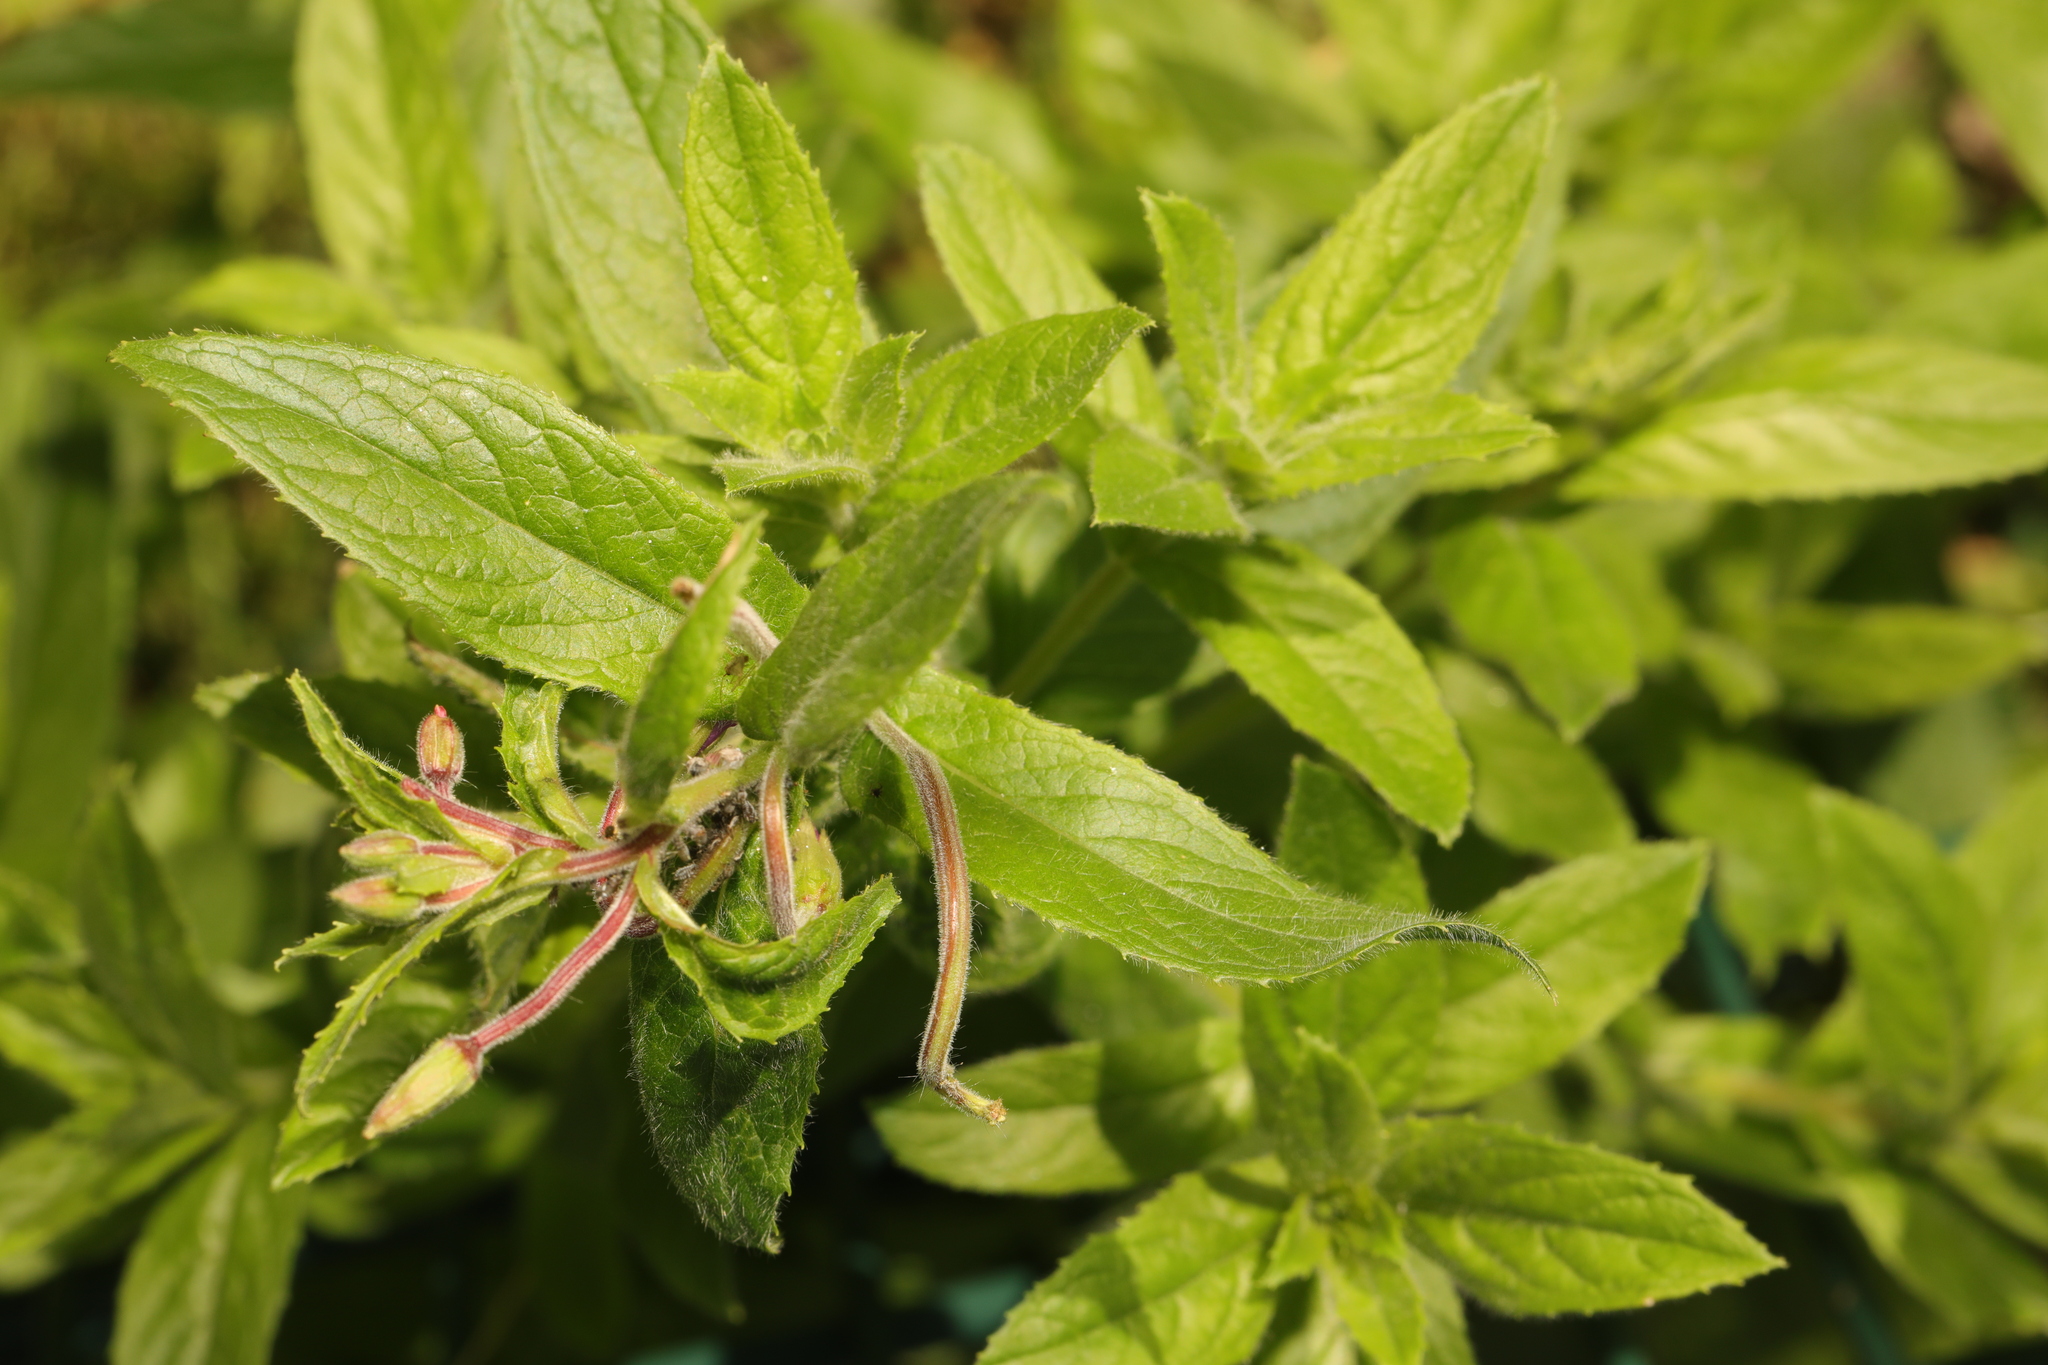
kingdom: Plantae
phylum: Tracheophyta
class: Magnoliopsida
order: Myrtales
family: Onagraceae
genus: Epilobium
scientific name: Epilobium hirsutum
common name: Great willowherb
